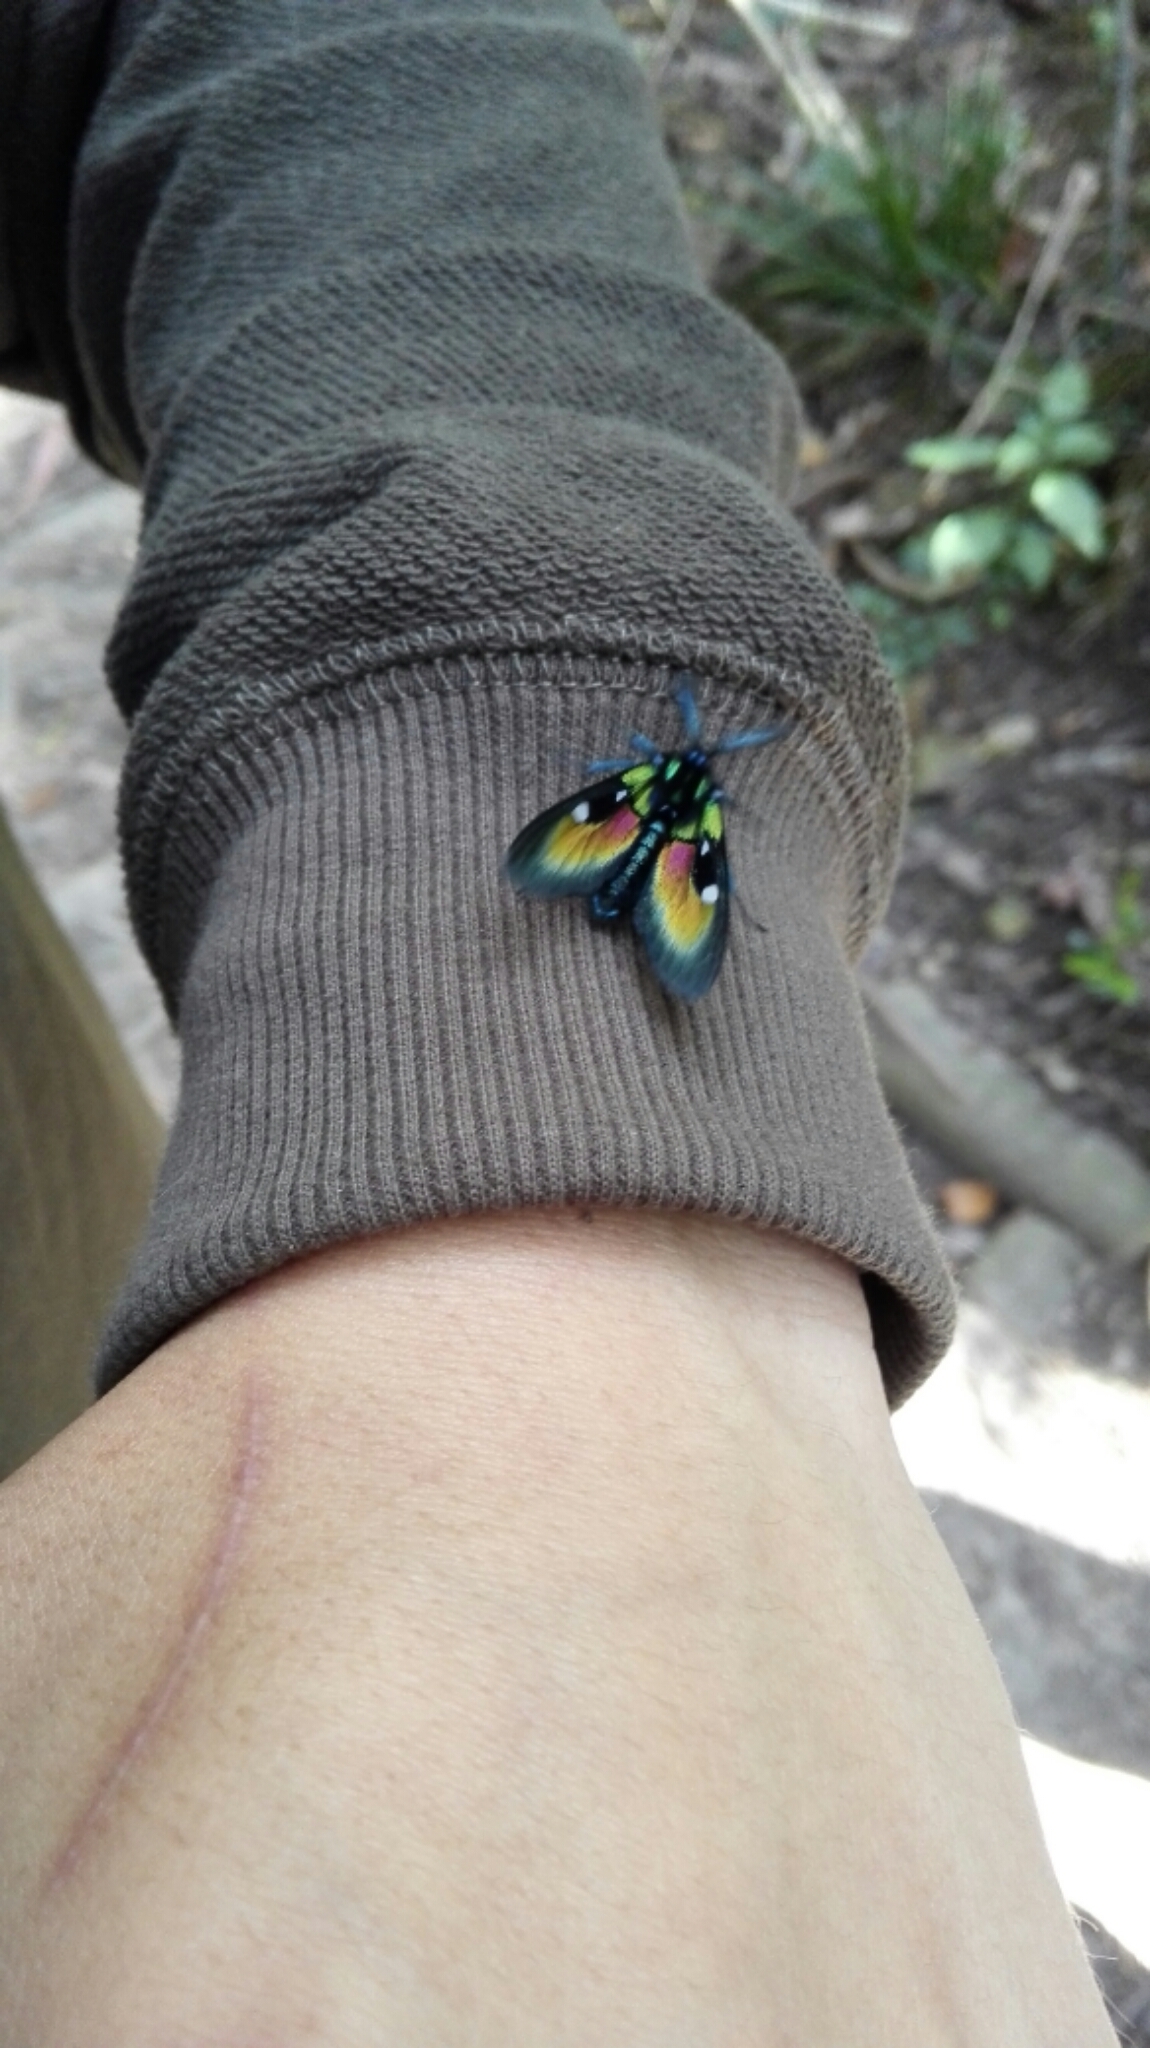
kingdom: Animalia
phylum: Arthropoda
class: Insecta
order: Lepidoptera
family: Erebidae
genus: Chrysocale
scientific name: Chrysocale ignita
